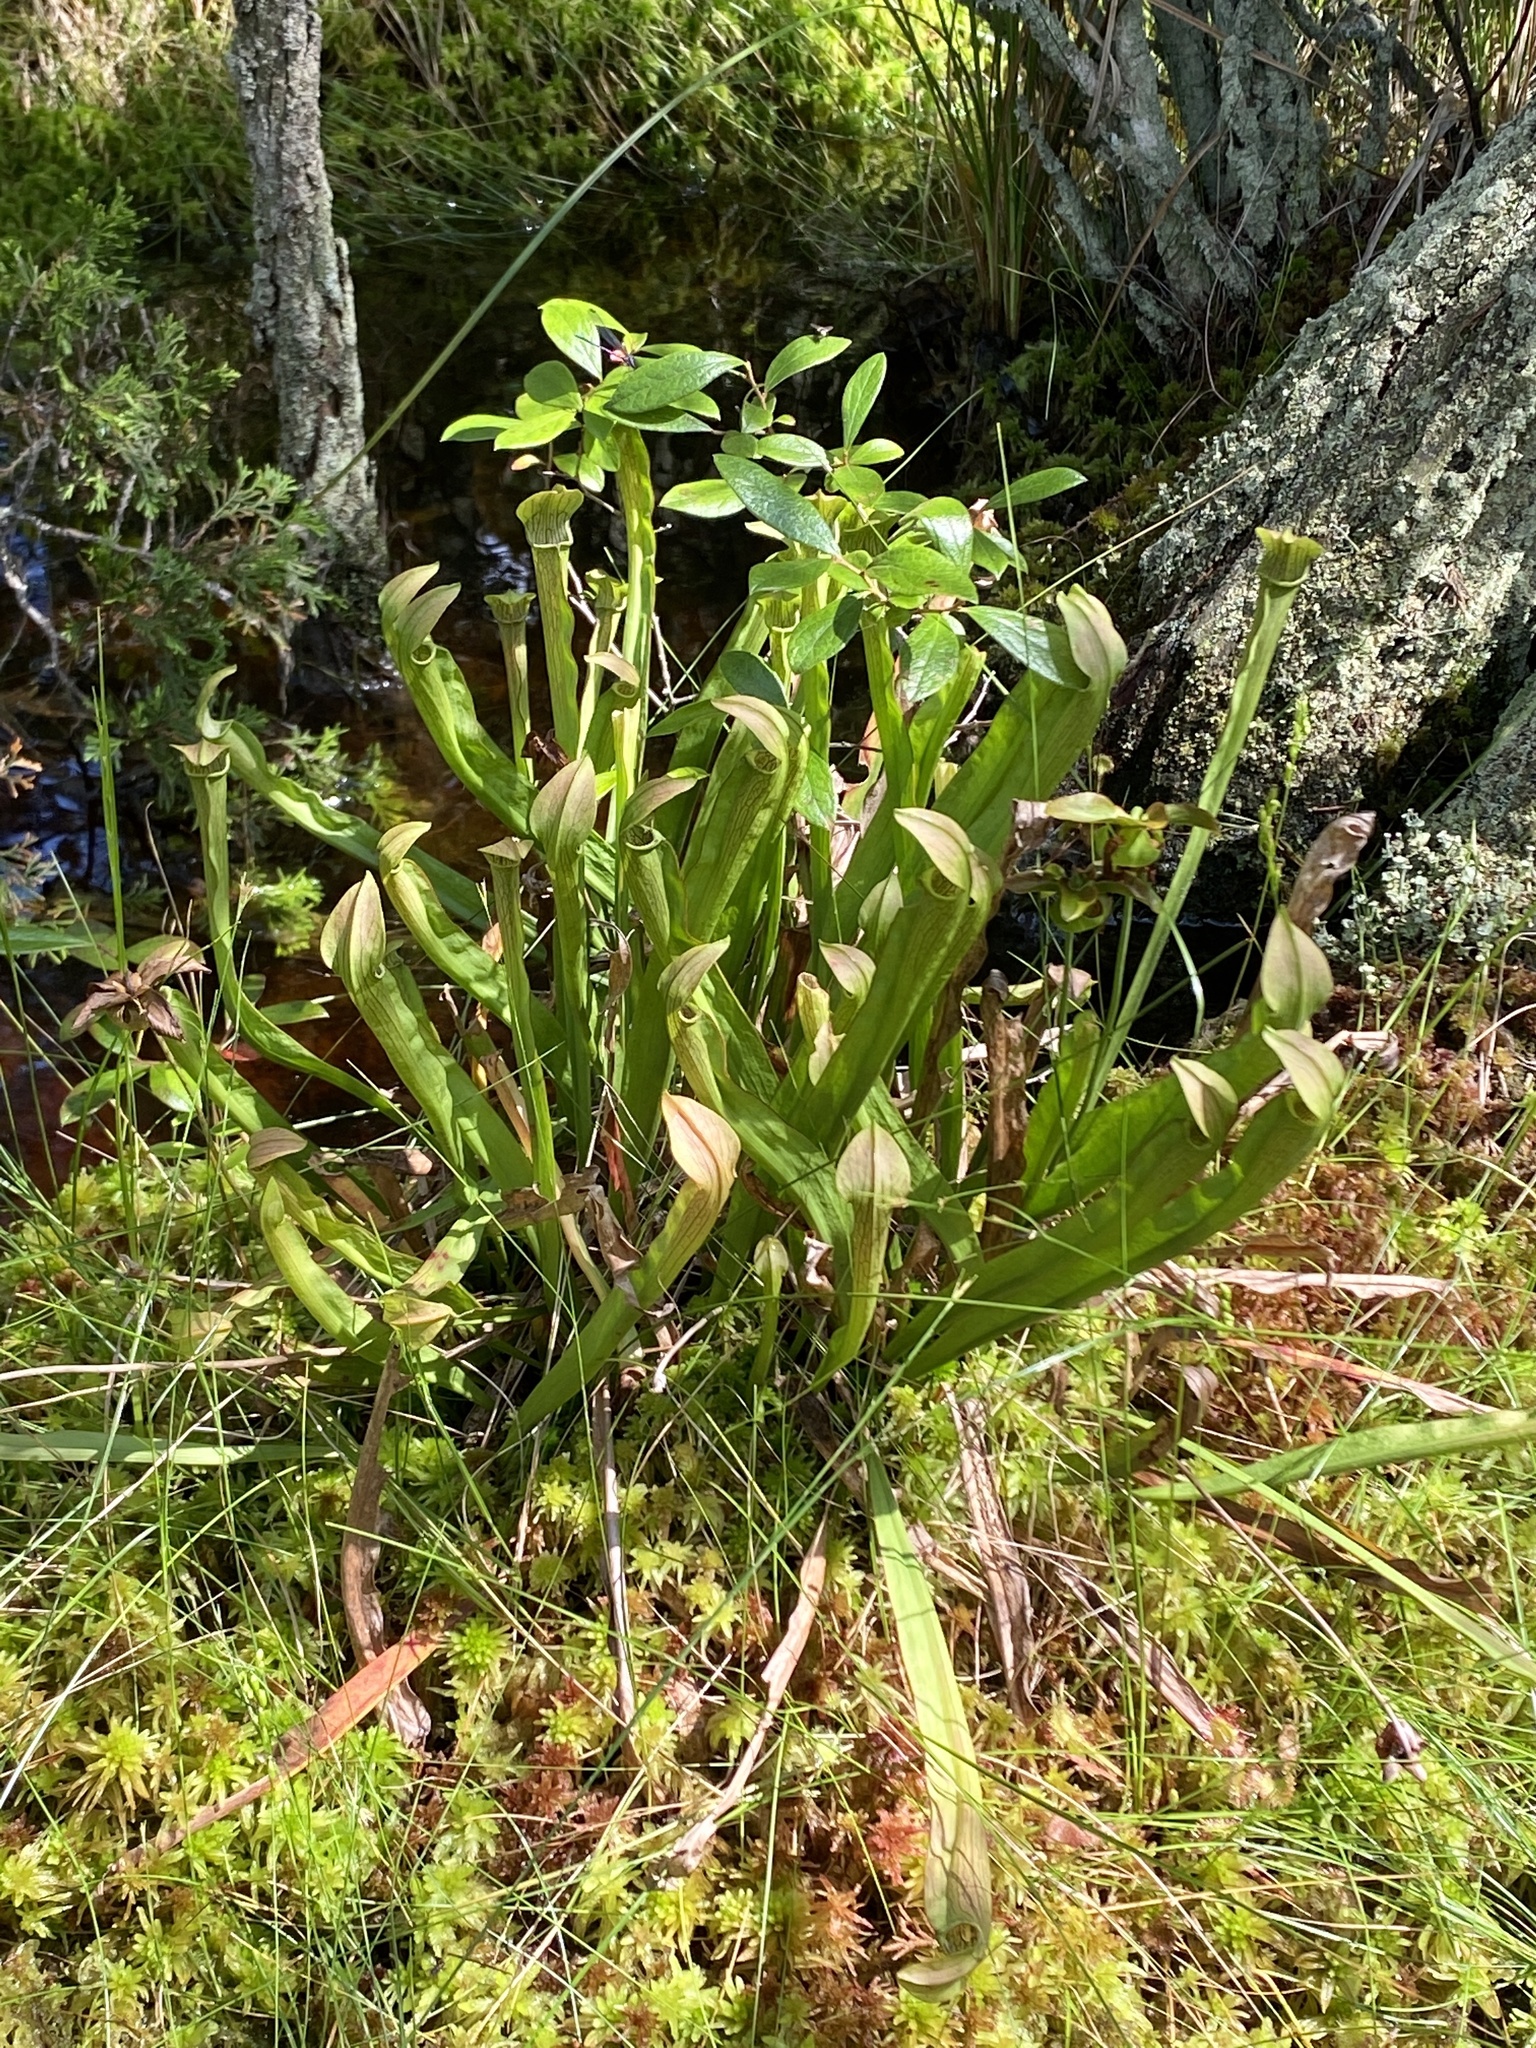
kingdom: Plantae
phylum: Tracheophyta
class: Magnoliopsida
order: Ericales
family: Sarraceniaceae
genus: Sarracenia
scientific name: Sarracenia rubra
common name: Sweet pitcherplant
